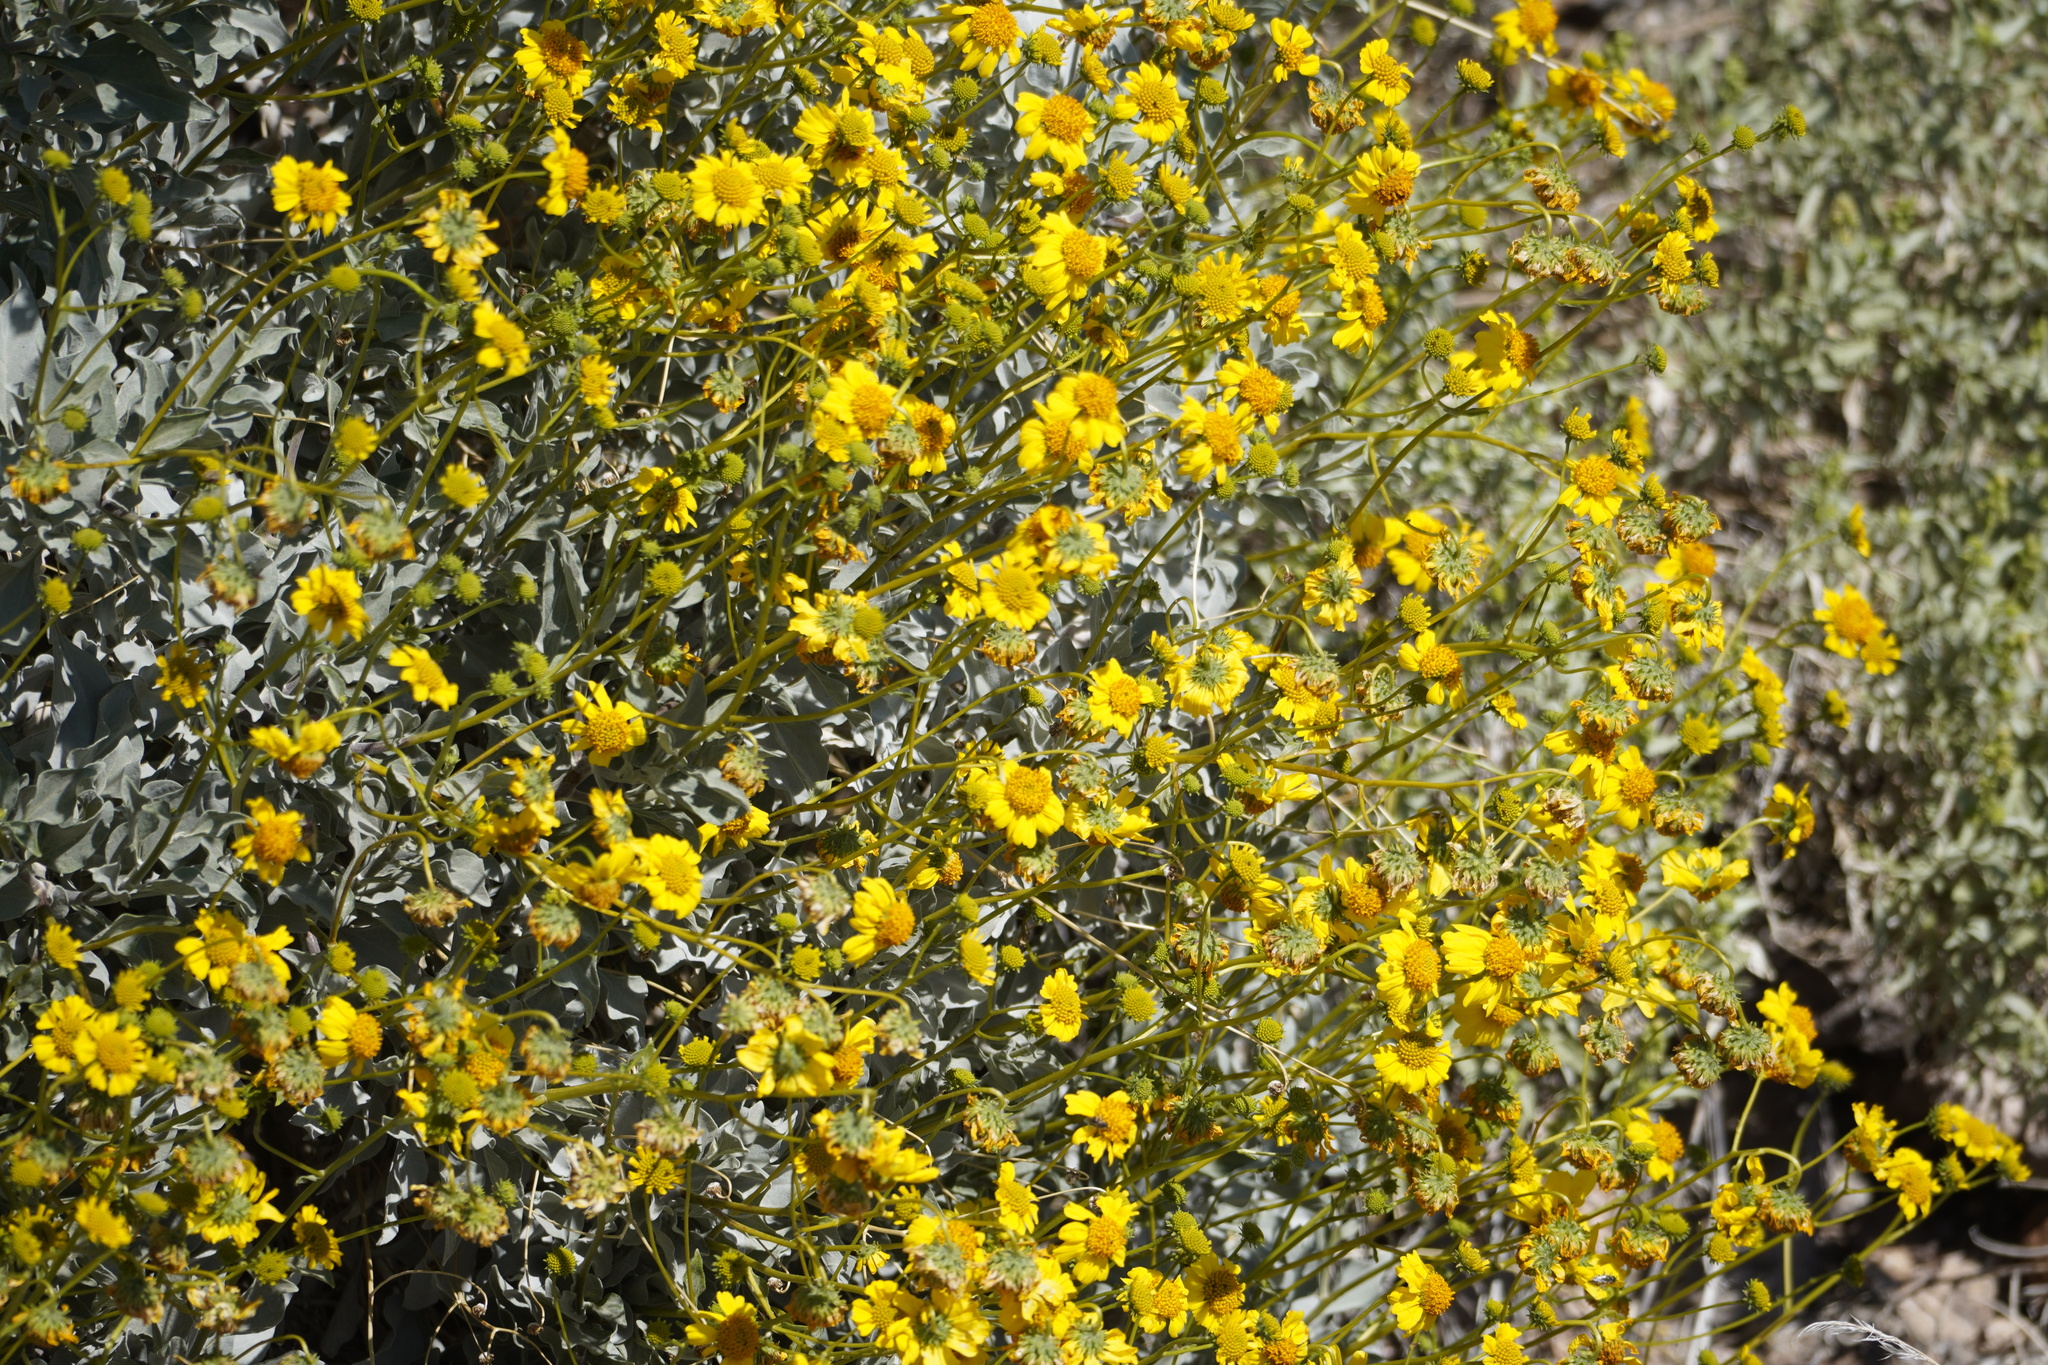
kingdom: Plantae
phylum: Tracheophyta
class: Magnoliopsida
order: Asterales
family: Asteraceae
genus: Encelia
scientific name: Encelia farinosa
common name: Brittlebush
